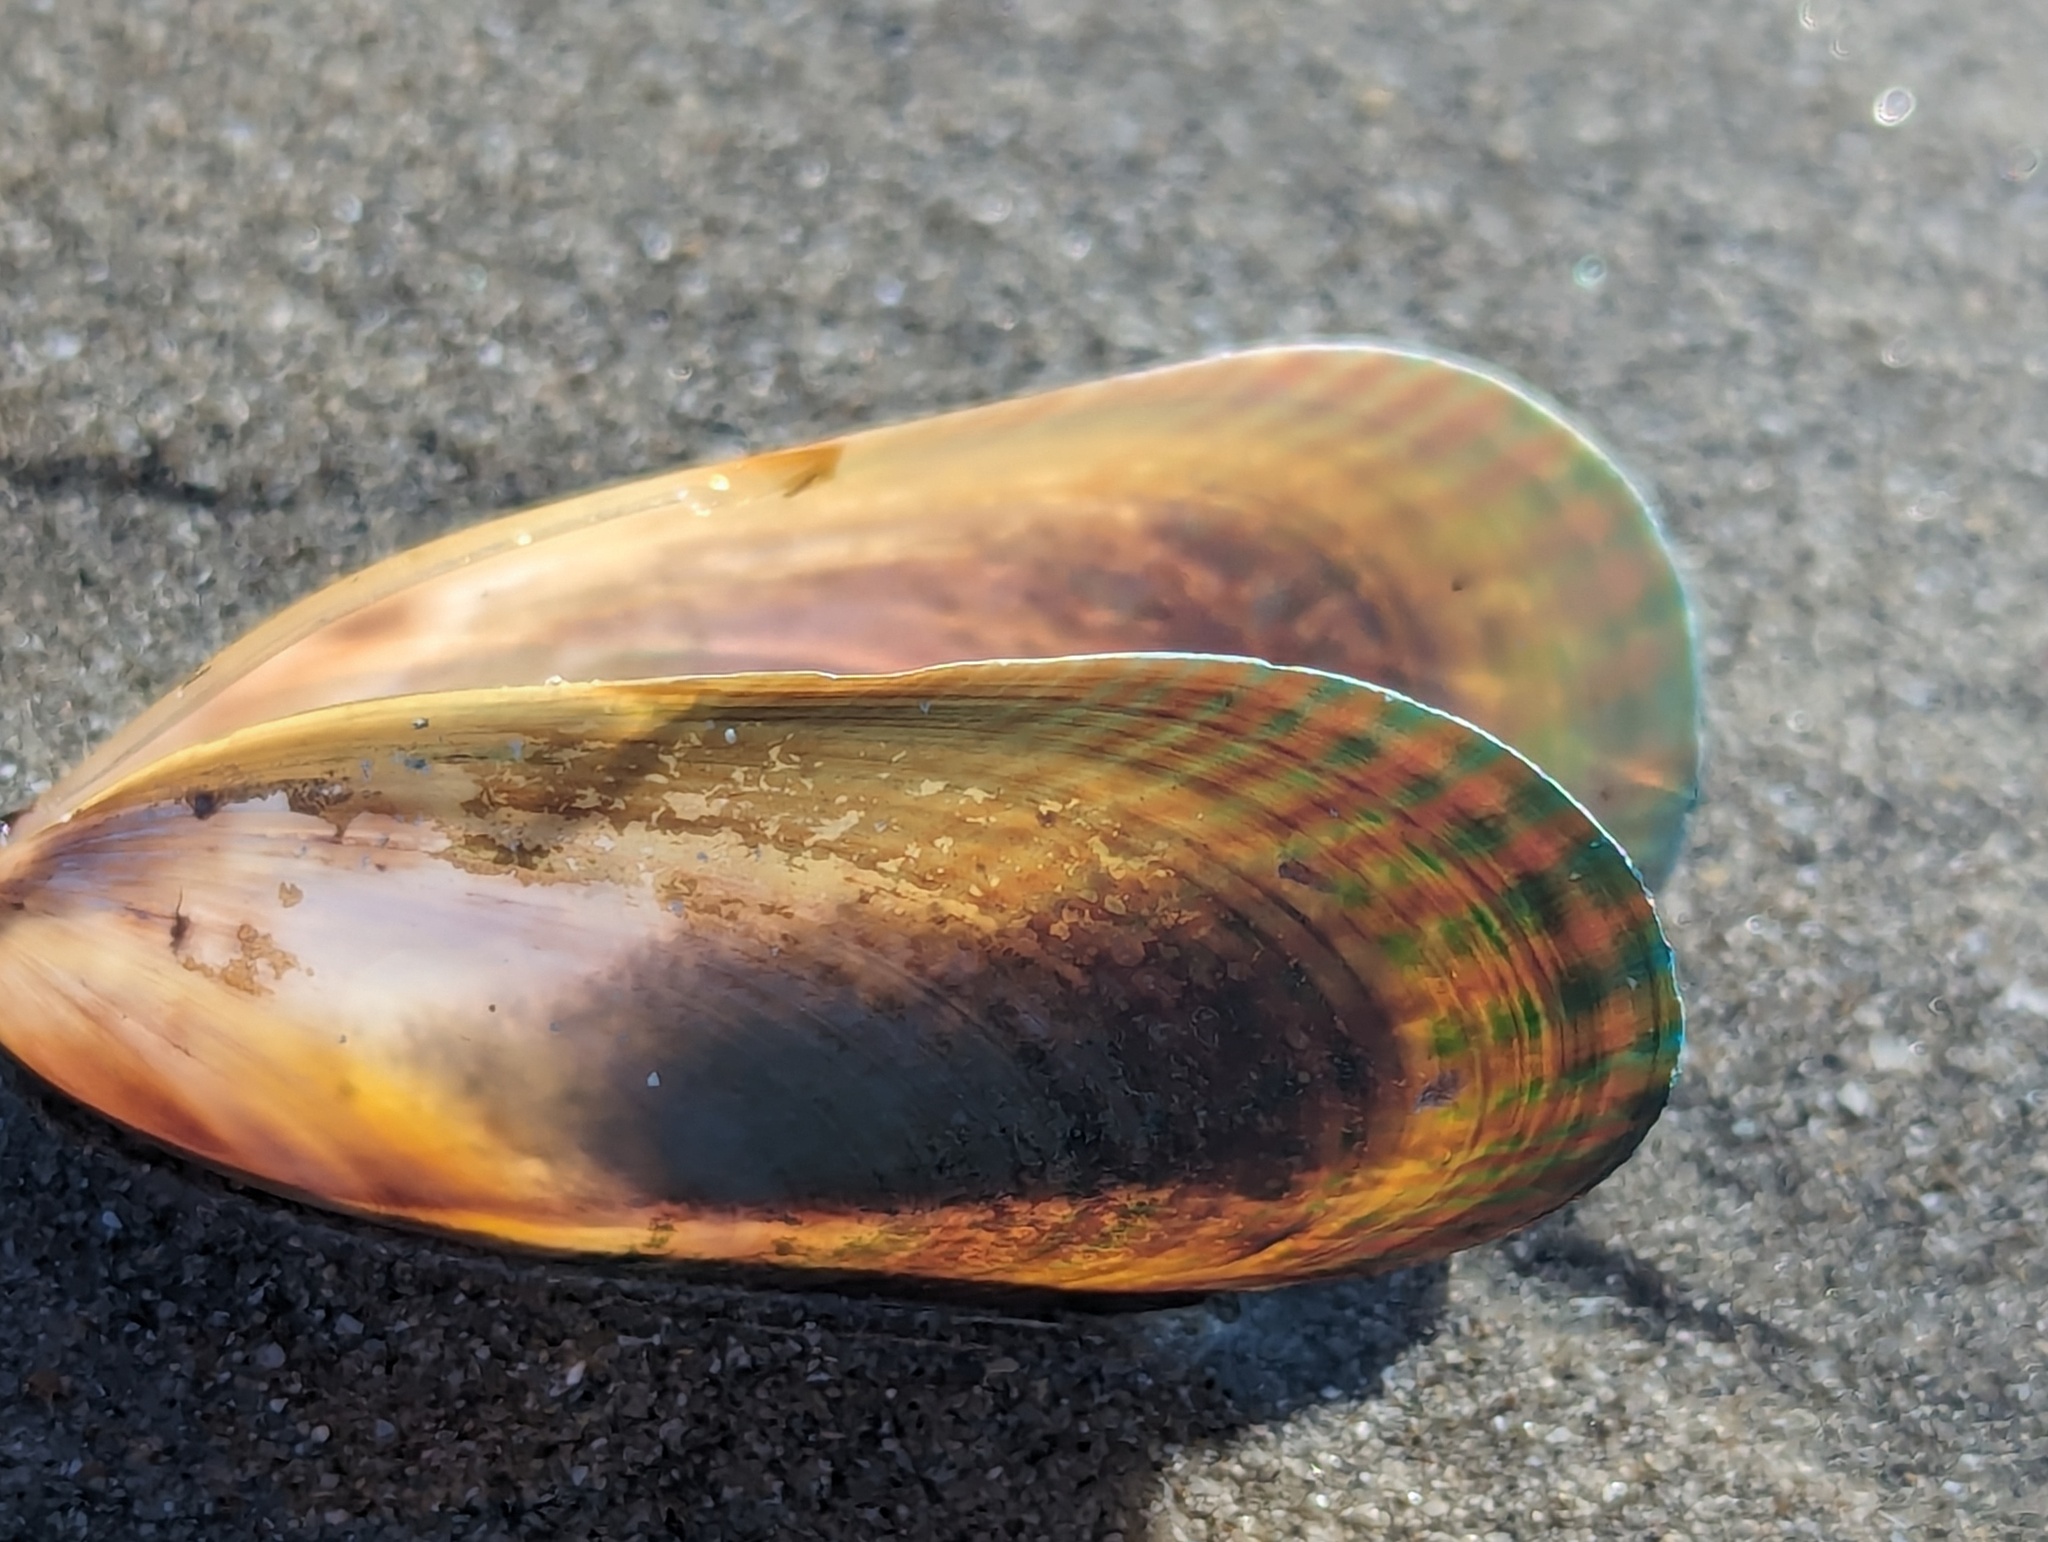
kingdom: Animalia
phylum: Mollusca
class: Bivalvia
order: Mytilida
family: Mytilidae
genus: Perna
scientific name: Perna canaliculus
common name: New zealand greenshelltm
